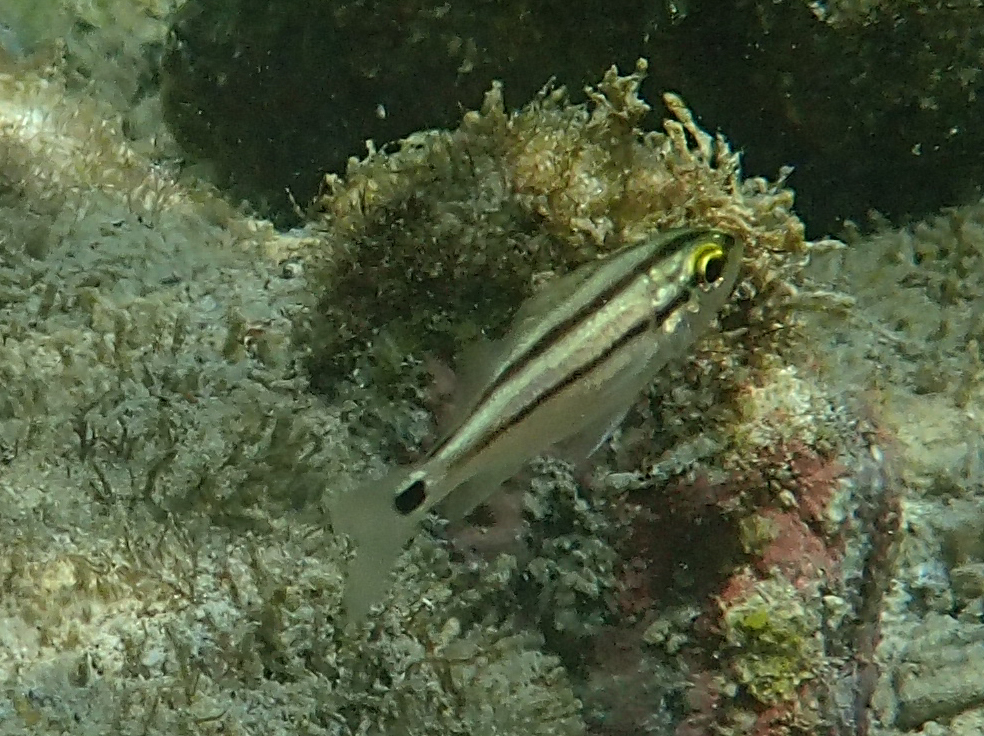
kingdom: Animalia
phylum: Chordata
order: Perciformes
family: Haemulidae
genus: Haemulon
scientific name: Haemulon scudderii
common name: Grey grunt
